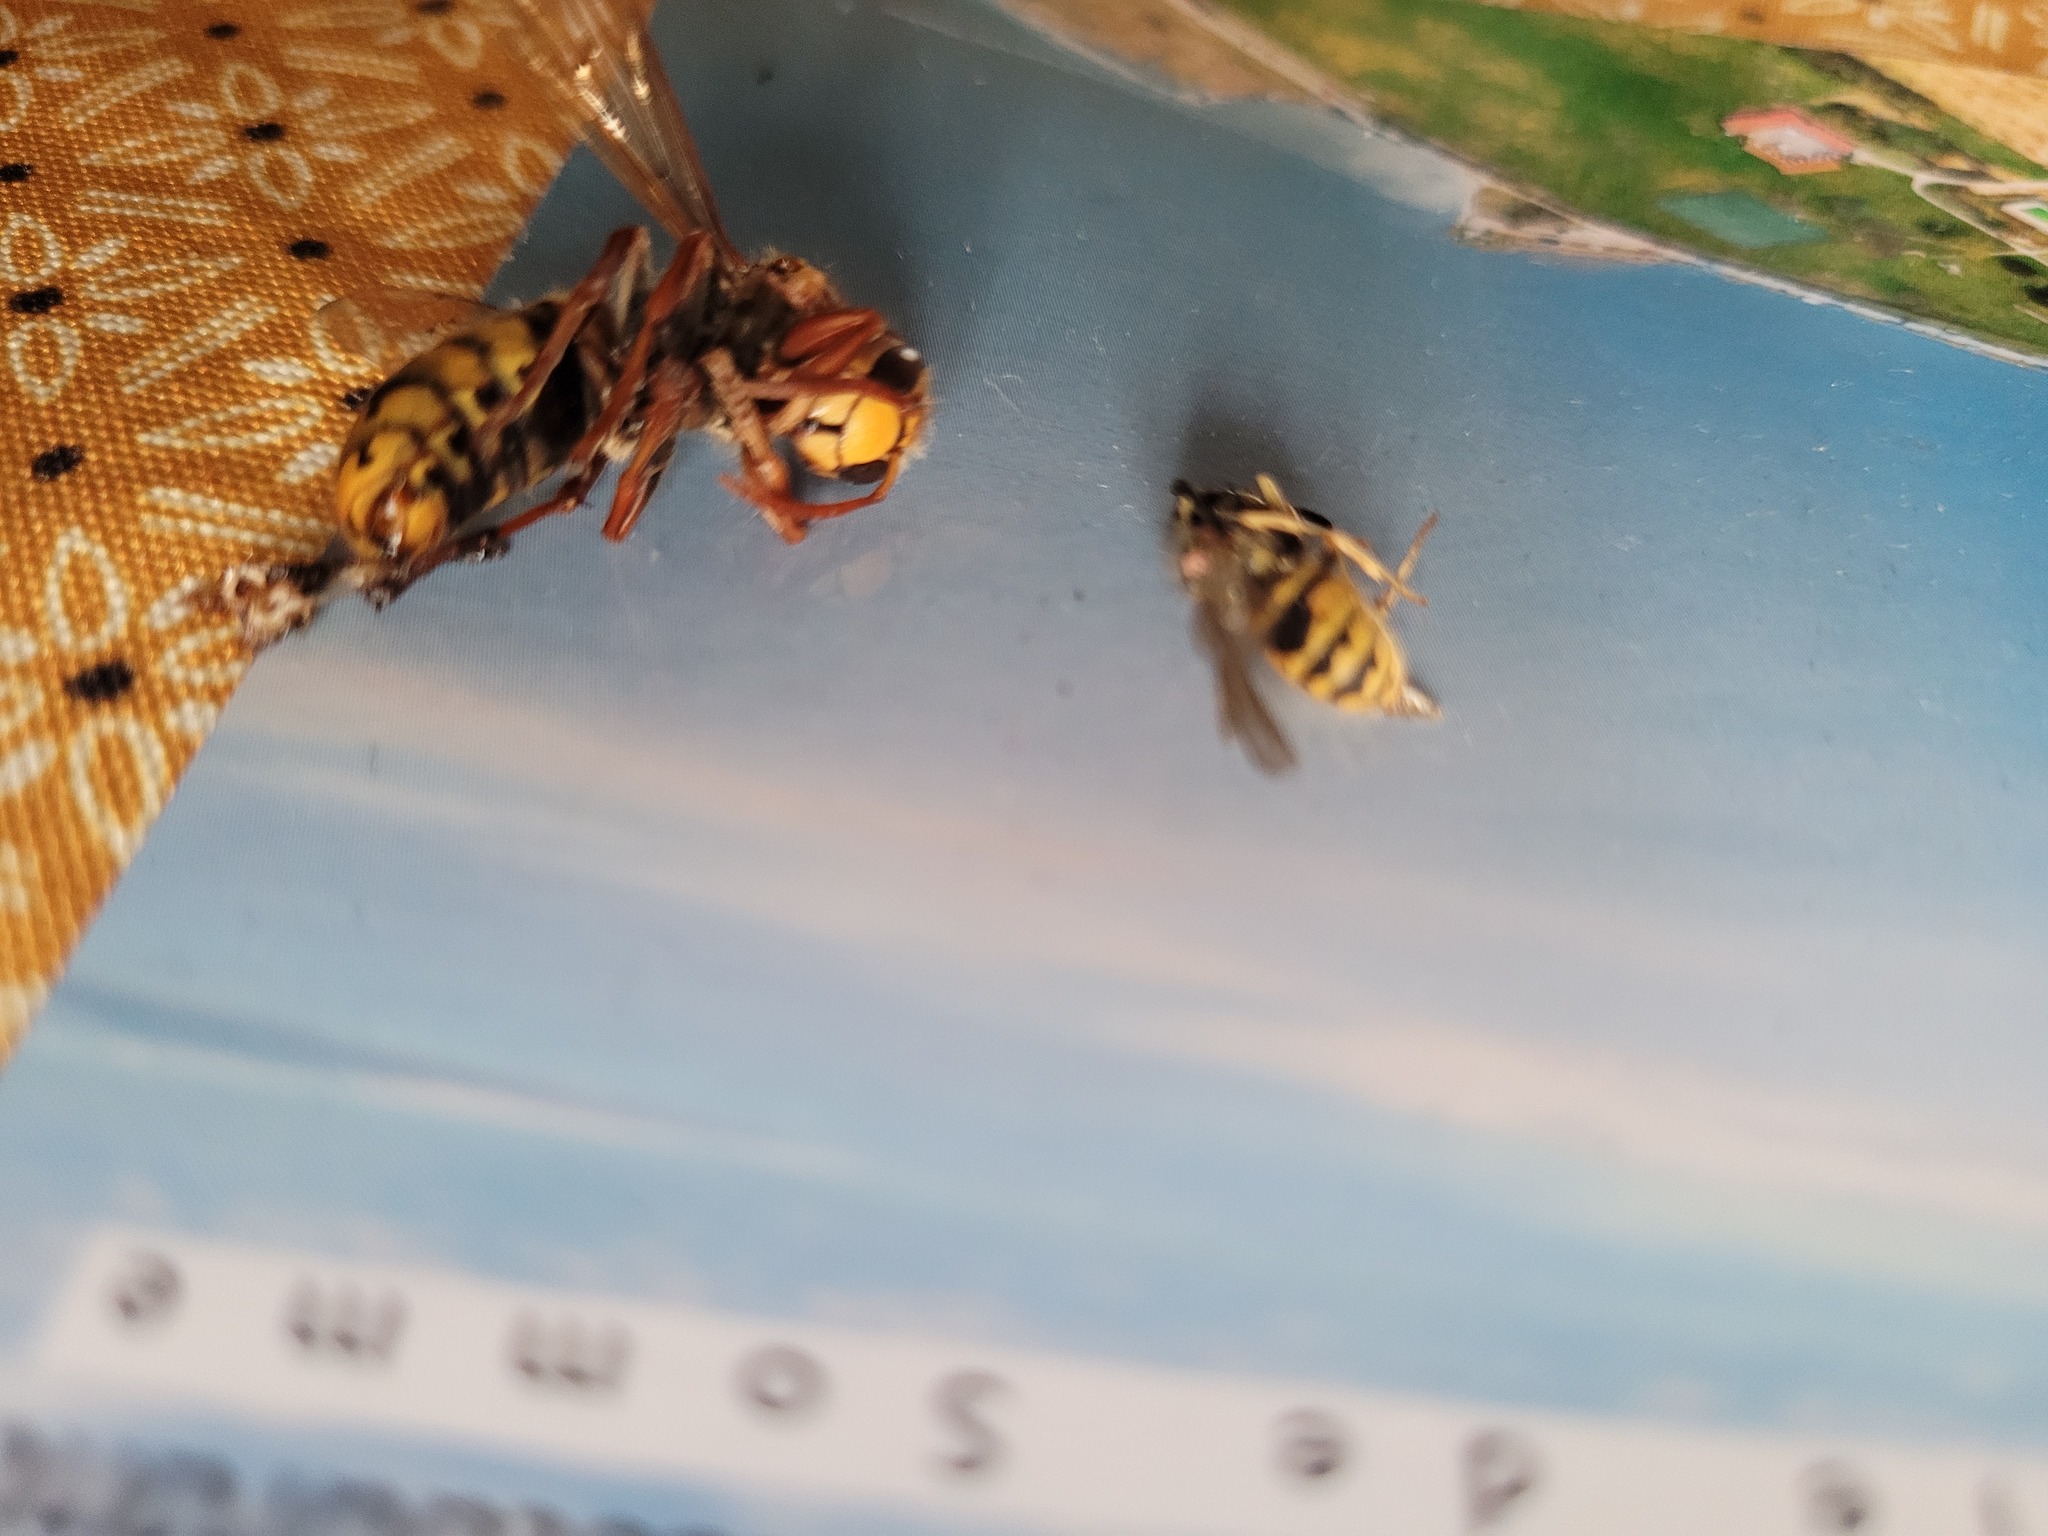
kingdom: Animalia
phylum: Arthropoda
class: Insecta
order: Hymenoptera
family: Vespidae
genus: Vespa
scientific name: Vespa crabro
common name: Hornet
